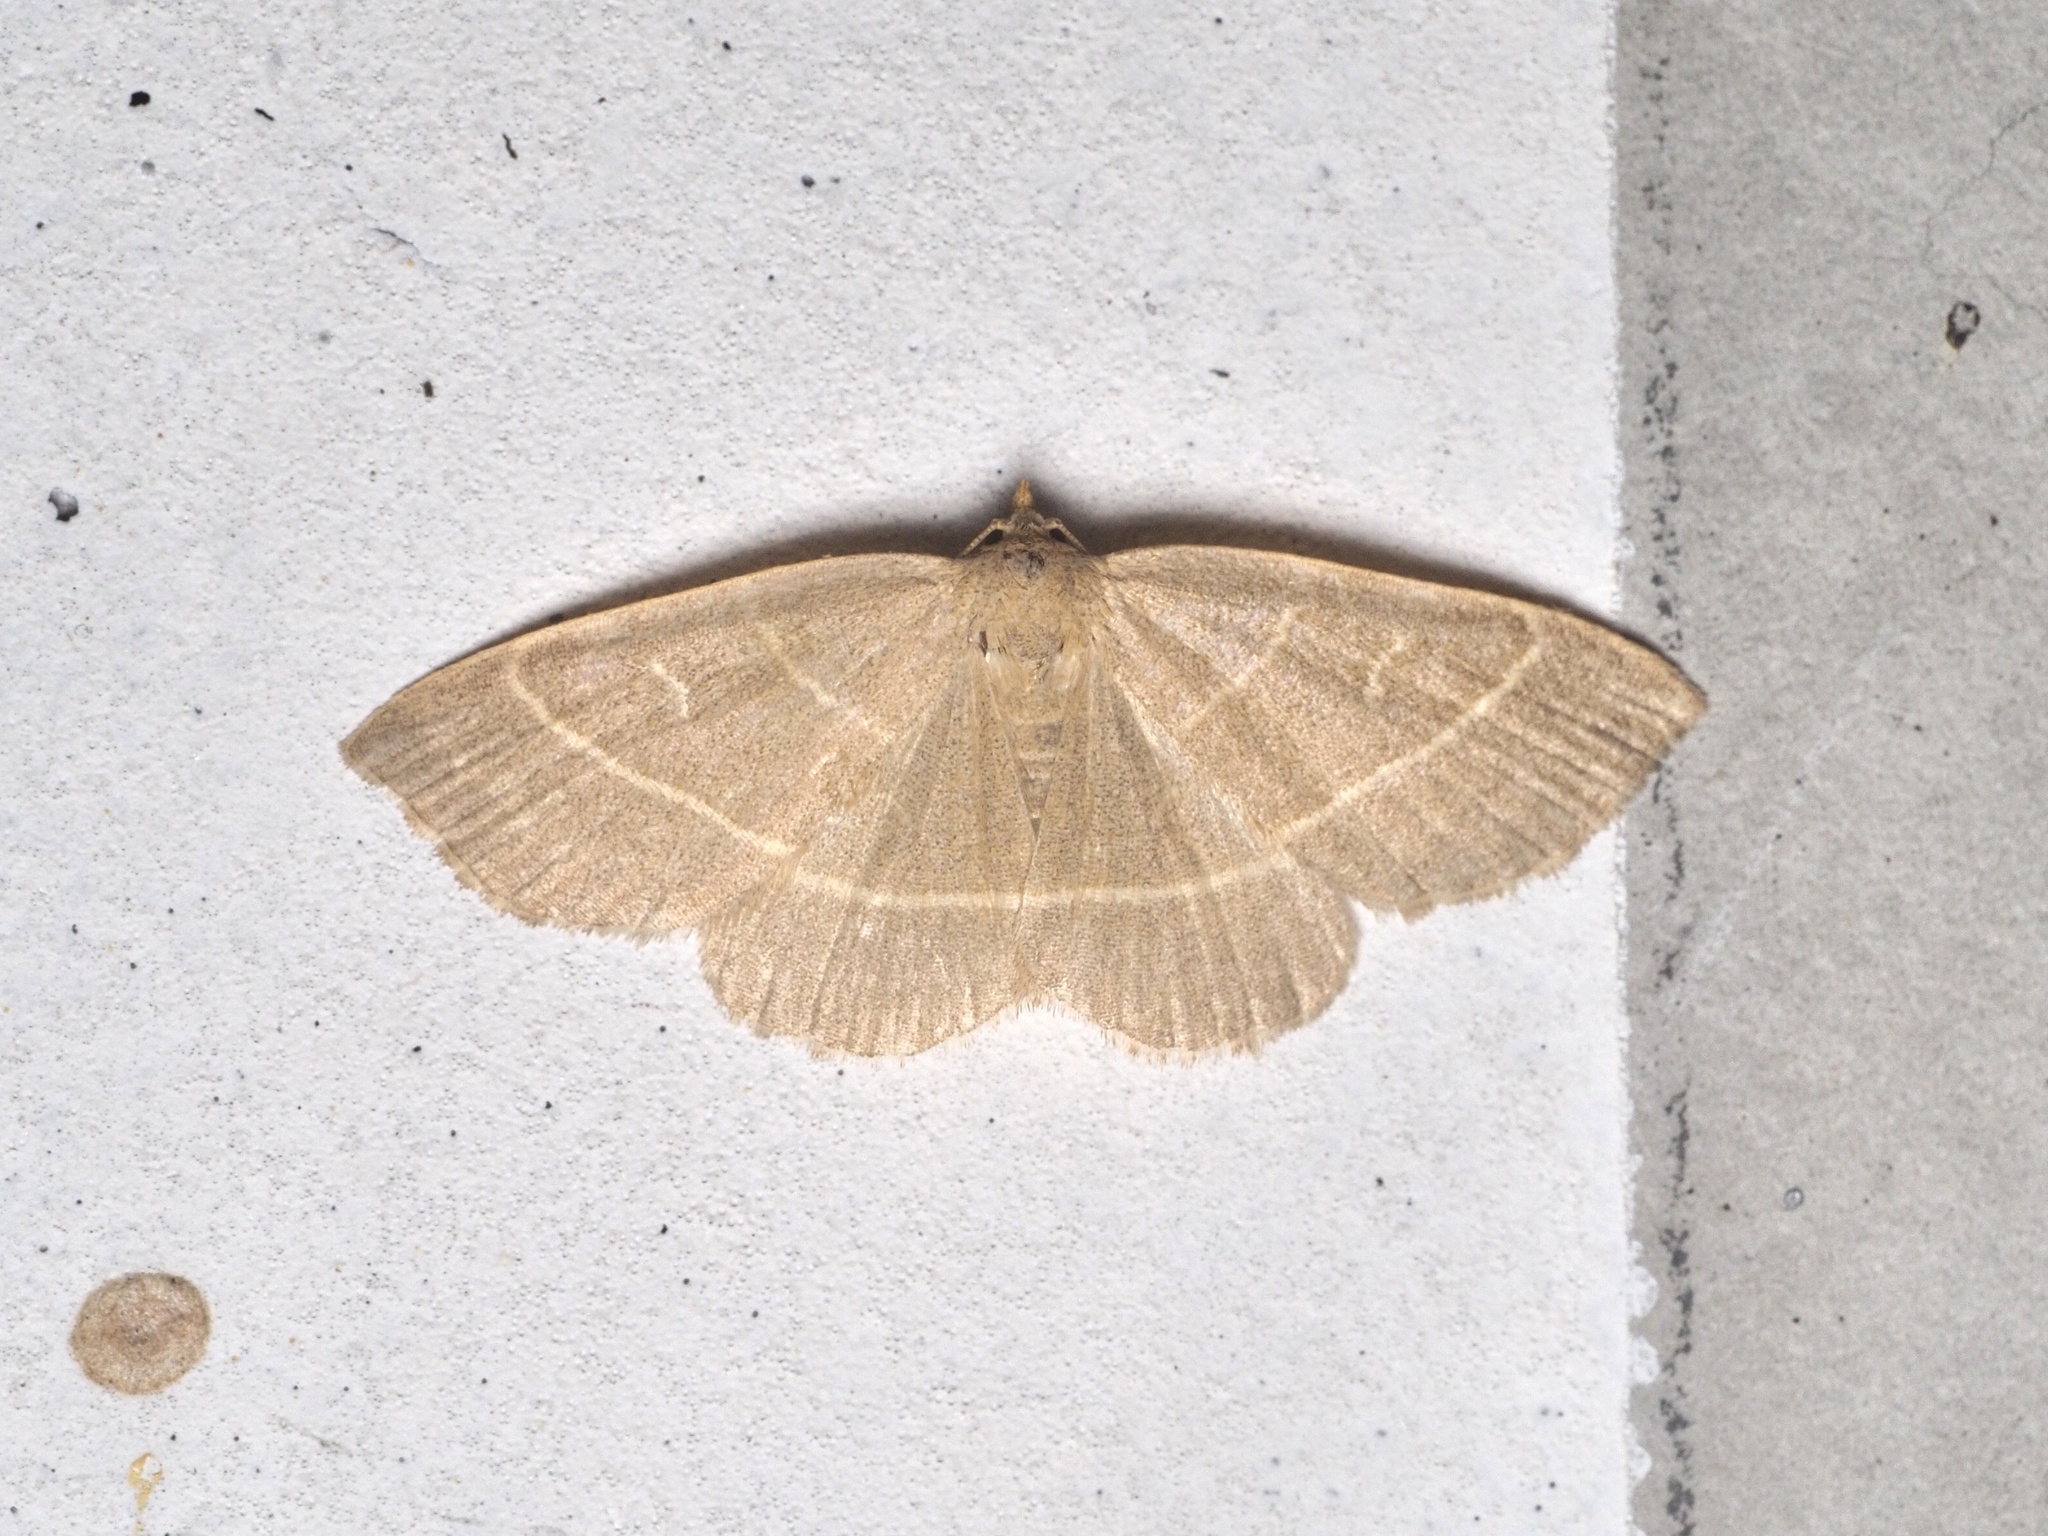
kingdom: Animalia
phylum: Arthropoda
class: Insecta
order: Lepidoptera
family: Erebidae
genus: Trisateles
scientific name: Trisateles emortualis
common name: Olive crescent
